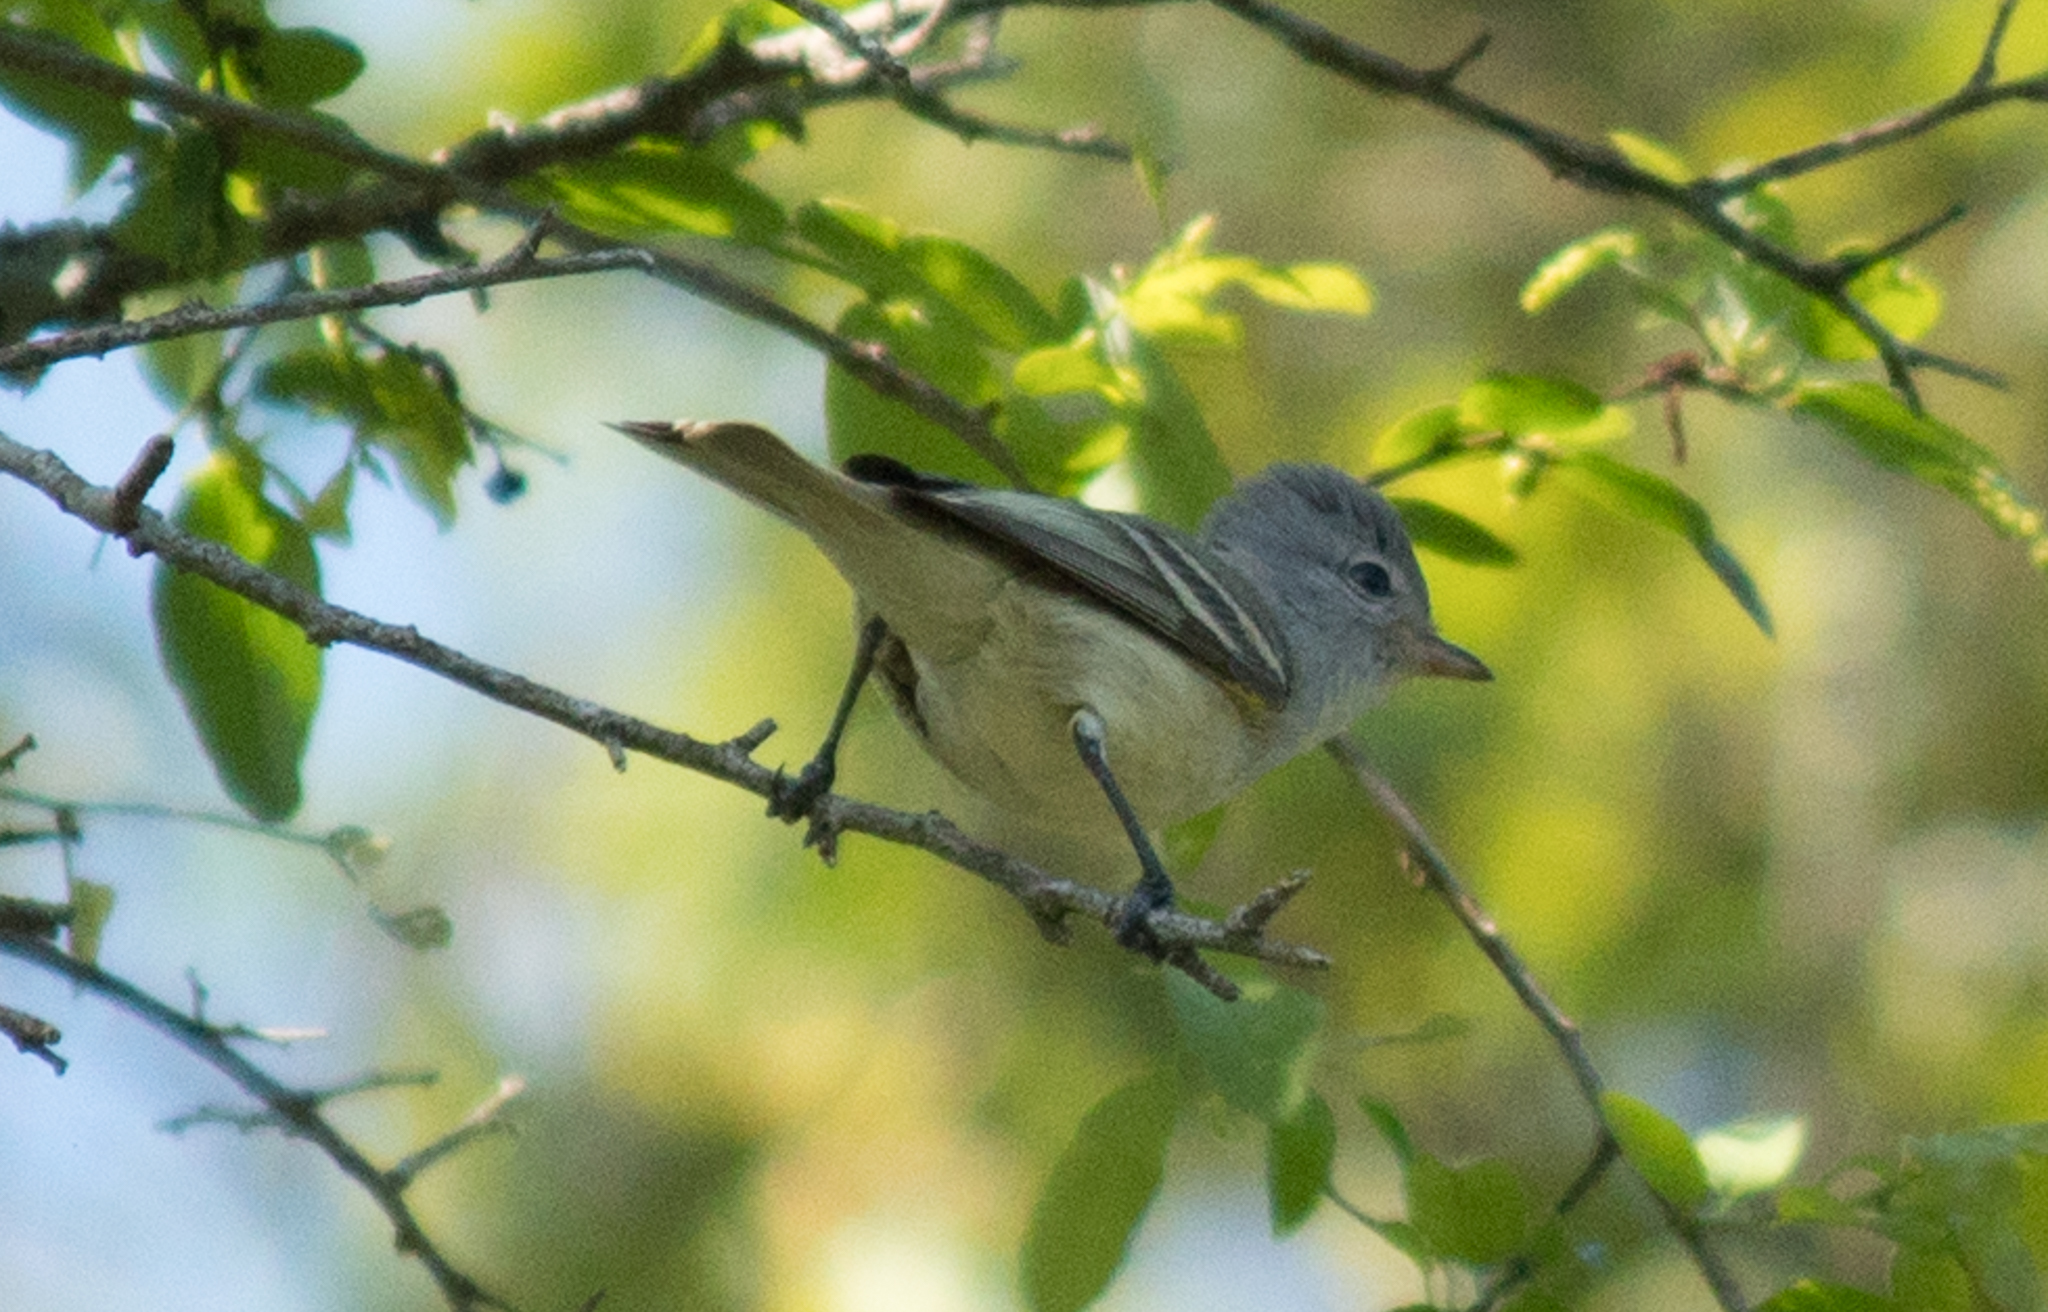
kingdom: Animalia
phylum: Chordata
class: Aves
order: Passeriformes
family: Tyrannidae
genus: Camptostoma
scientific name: Camptostoma obsoletum
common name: Southern beardless-tyrannulet
